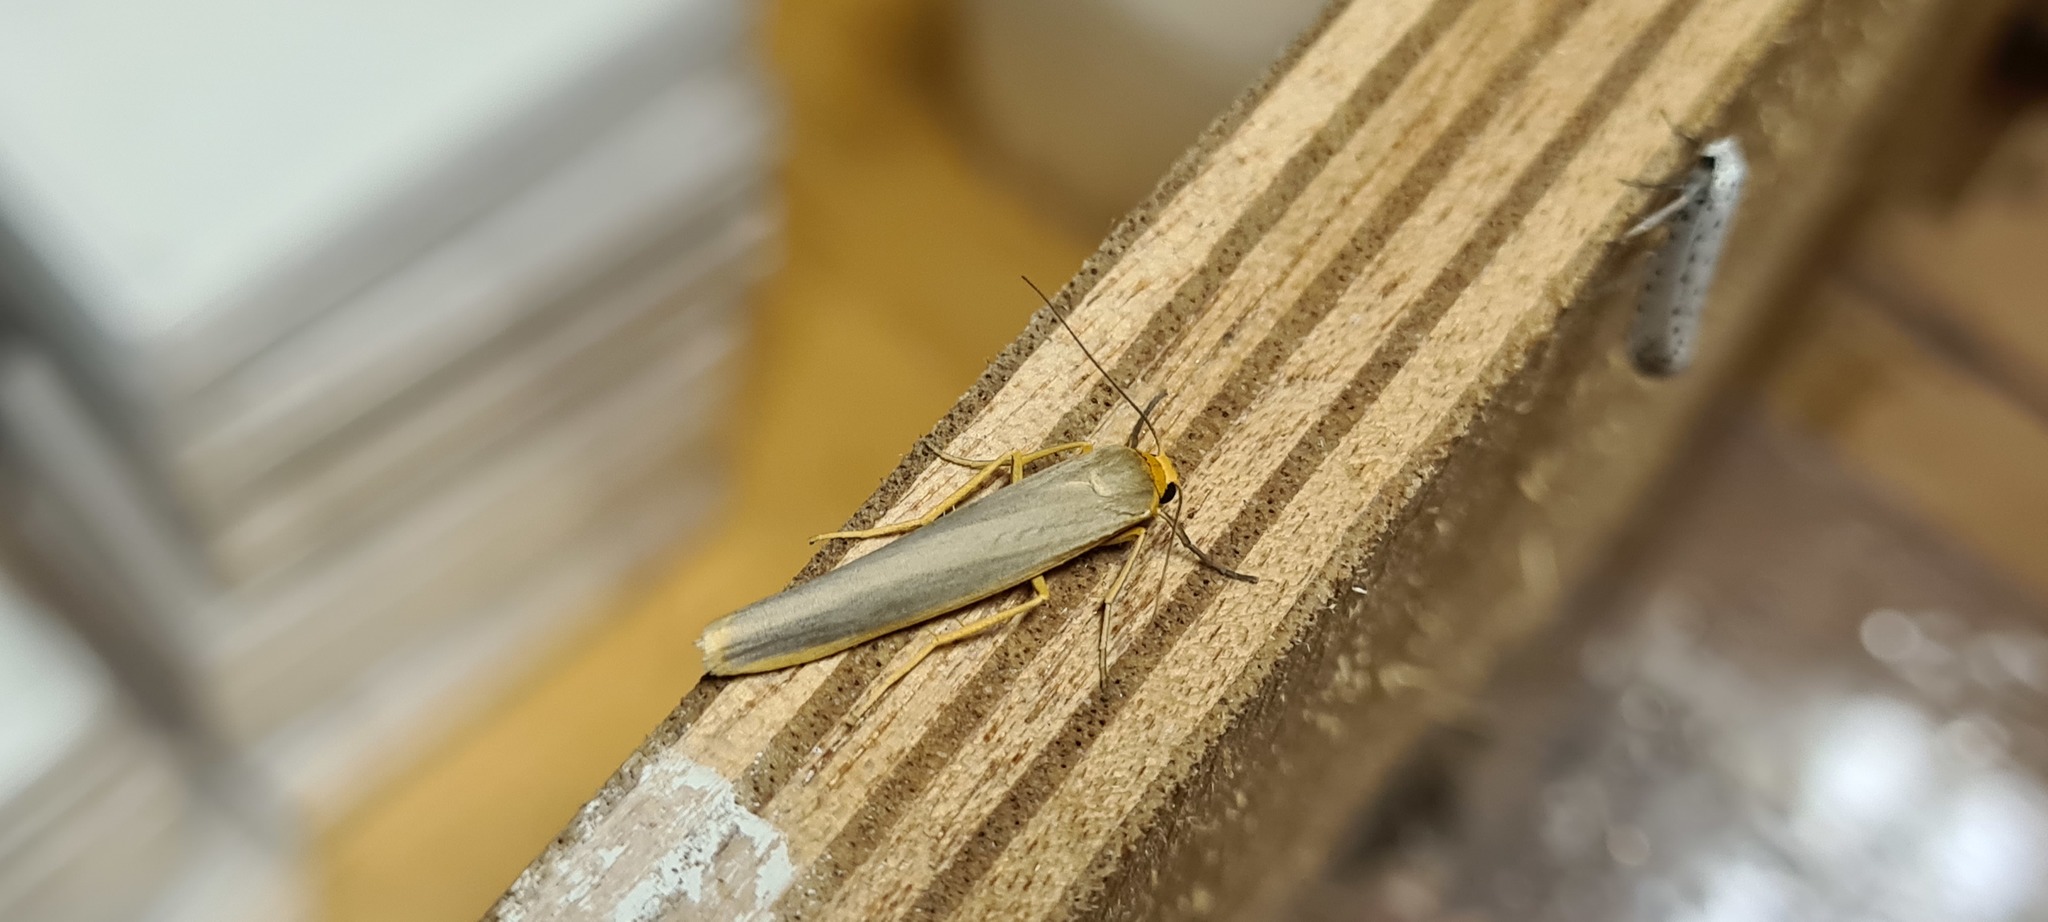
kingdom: Animalia
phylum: Arthropoda
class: Insecta
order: Lepidoptera
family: Erebidae
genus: Manulea
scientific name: Manulea complana
